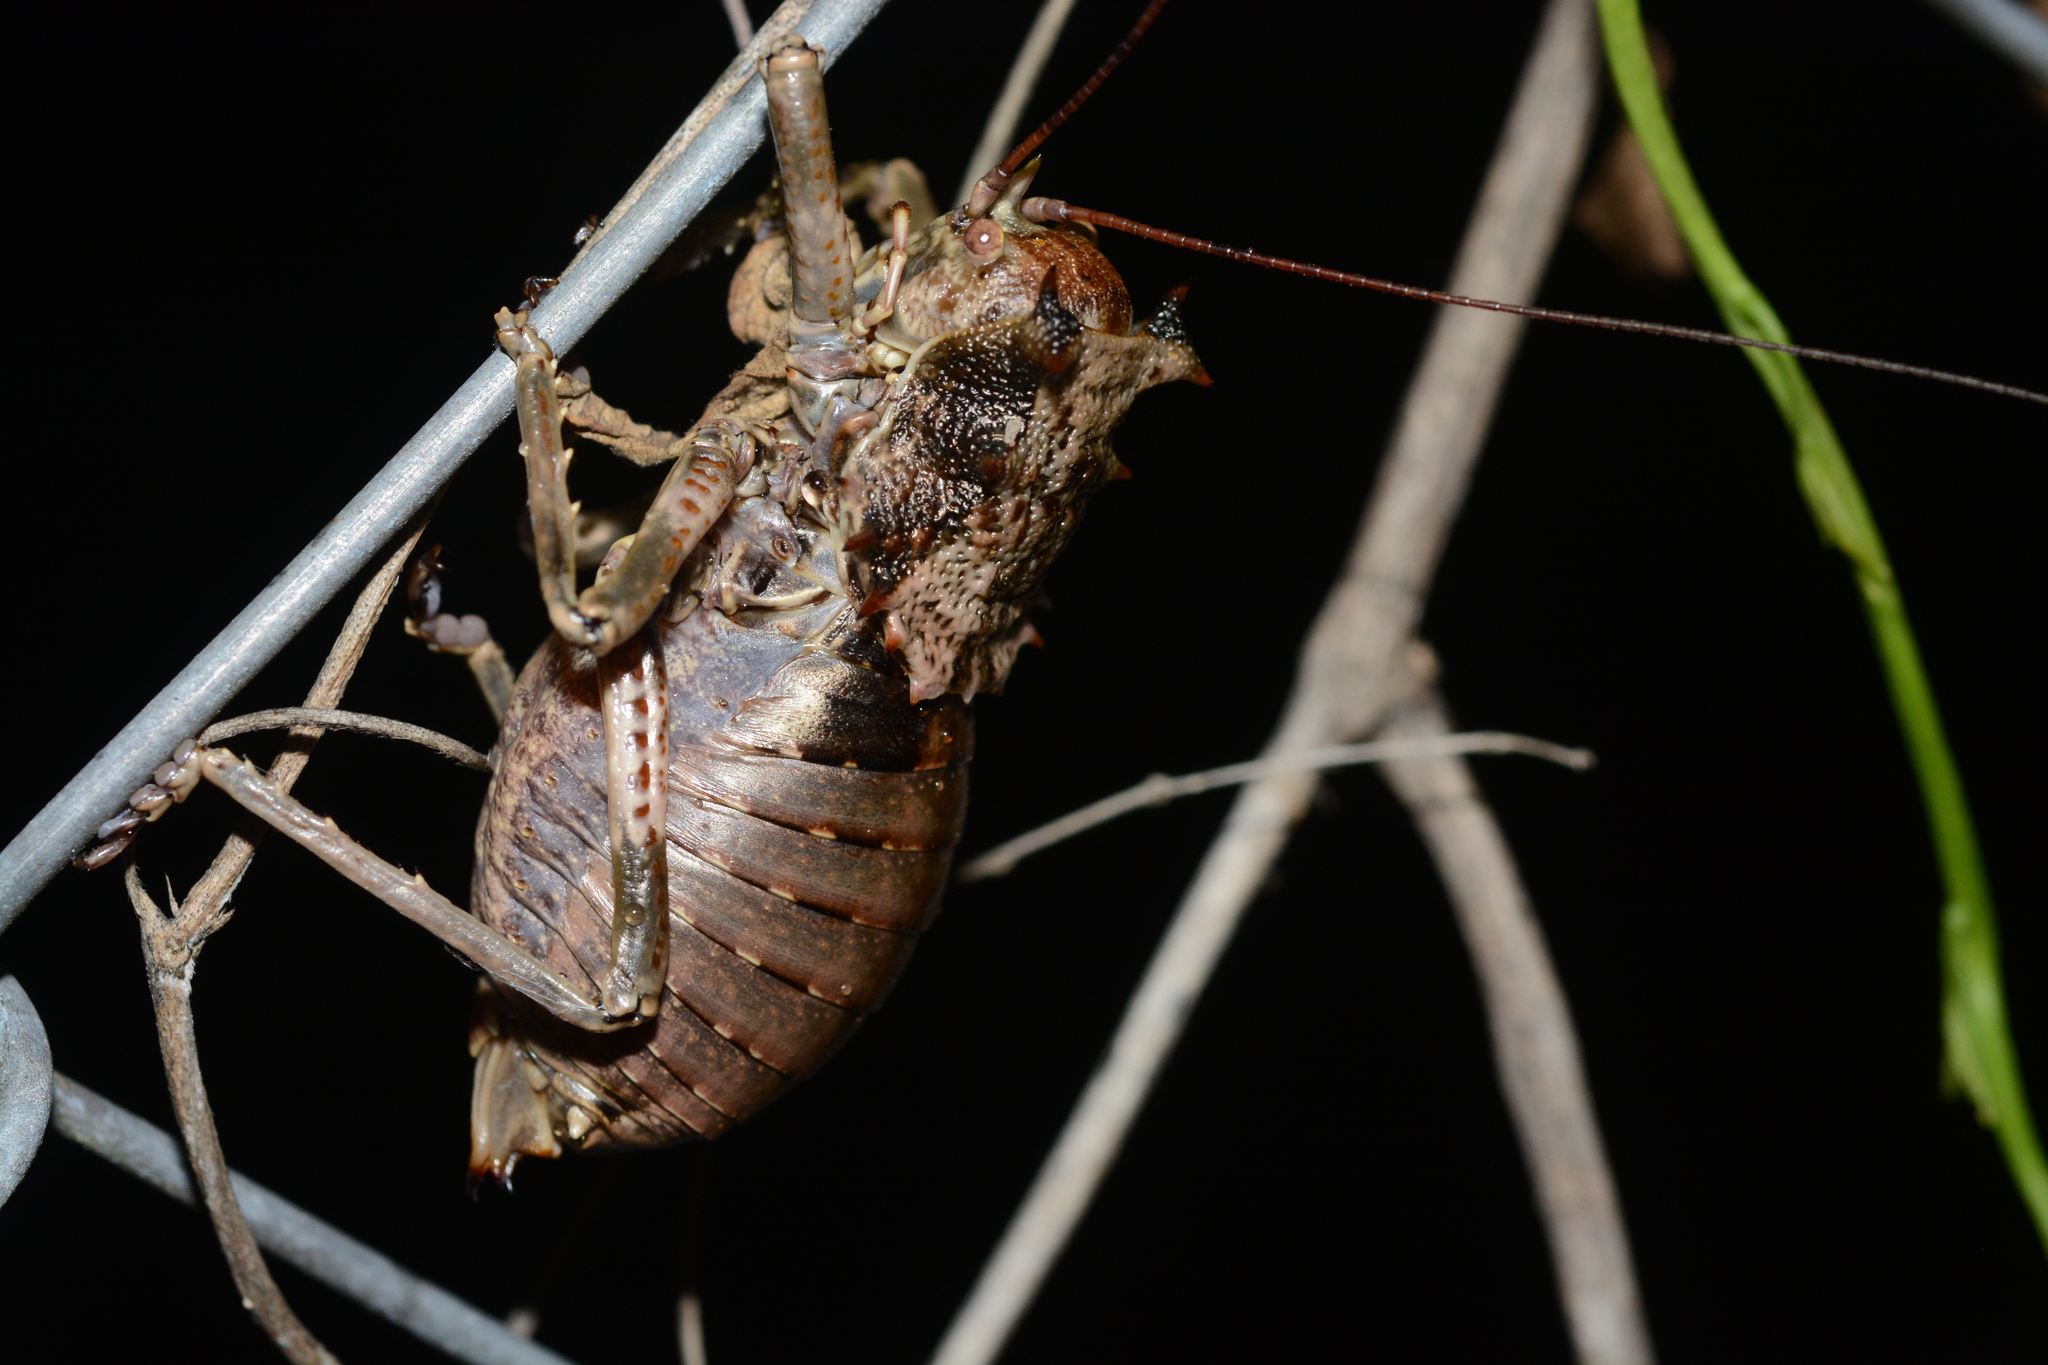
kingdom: Animalia
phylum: Arthropoda
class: Insecta
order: Orthoptera
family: Tettigoniidae
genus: Enyaliopsis
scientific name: Enyaliopsis bloyeti
